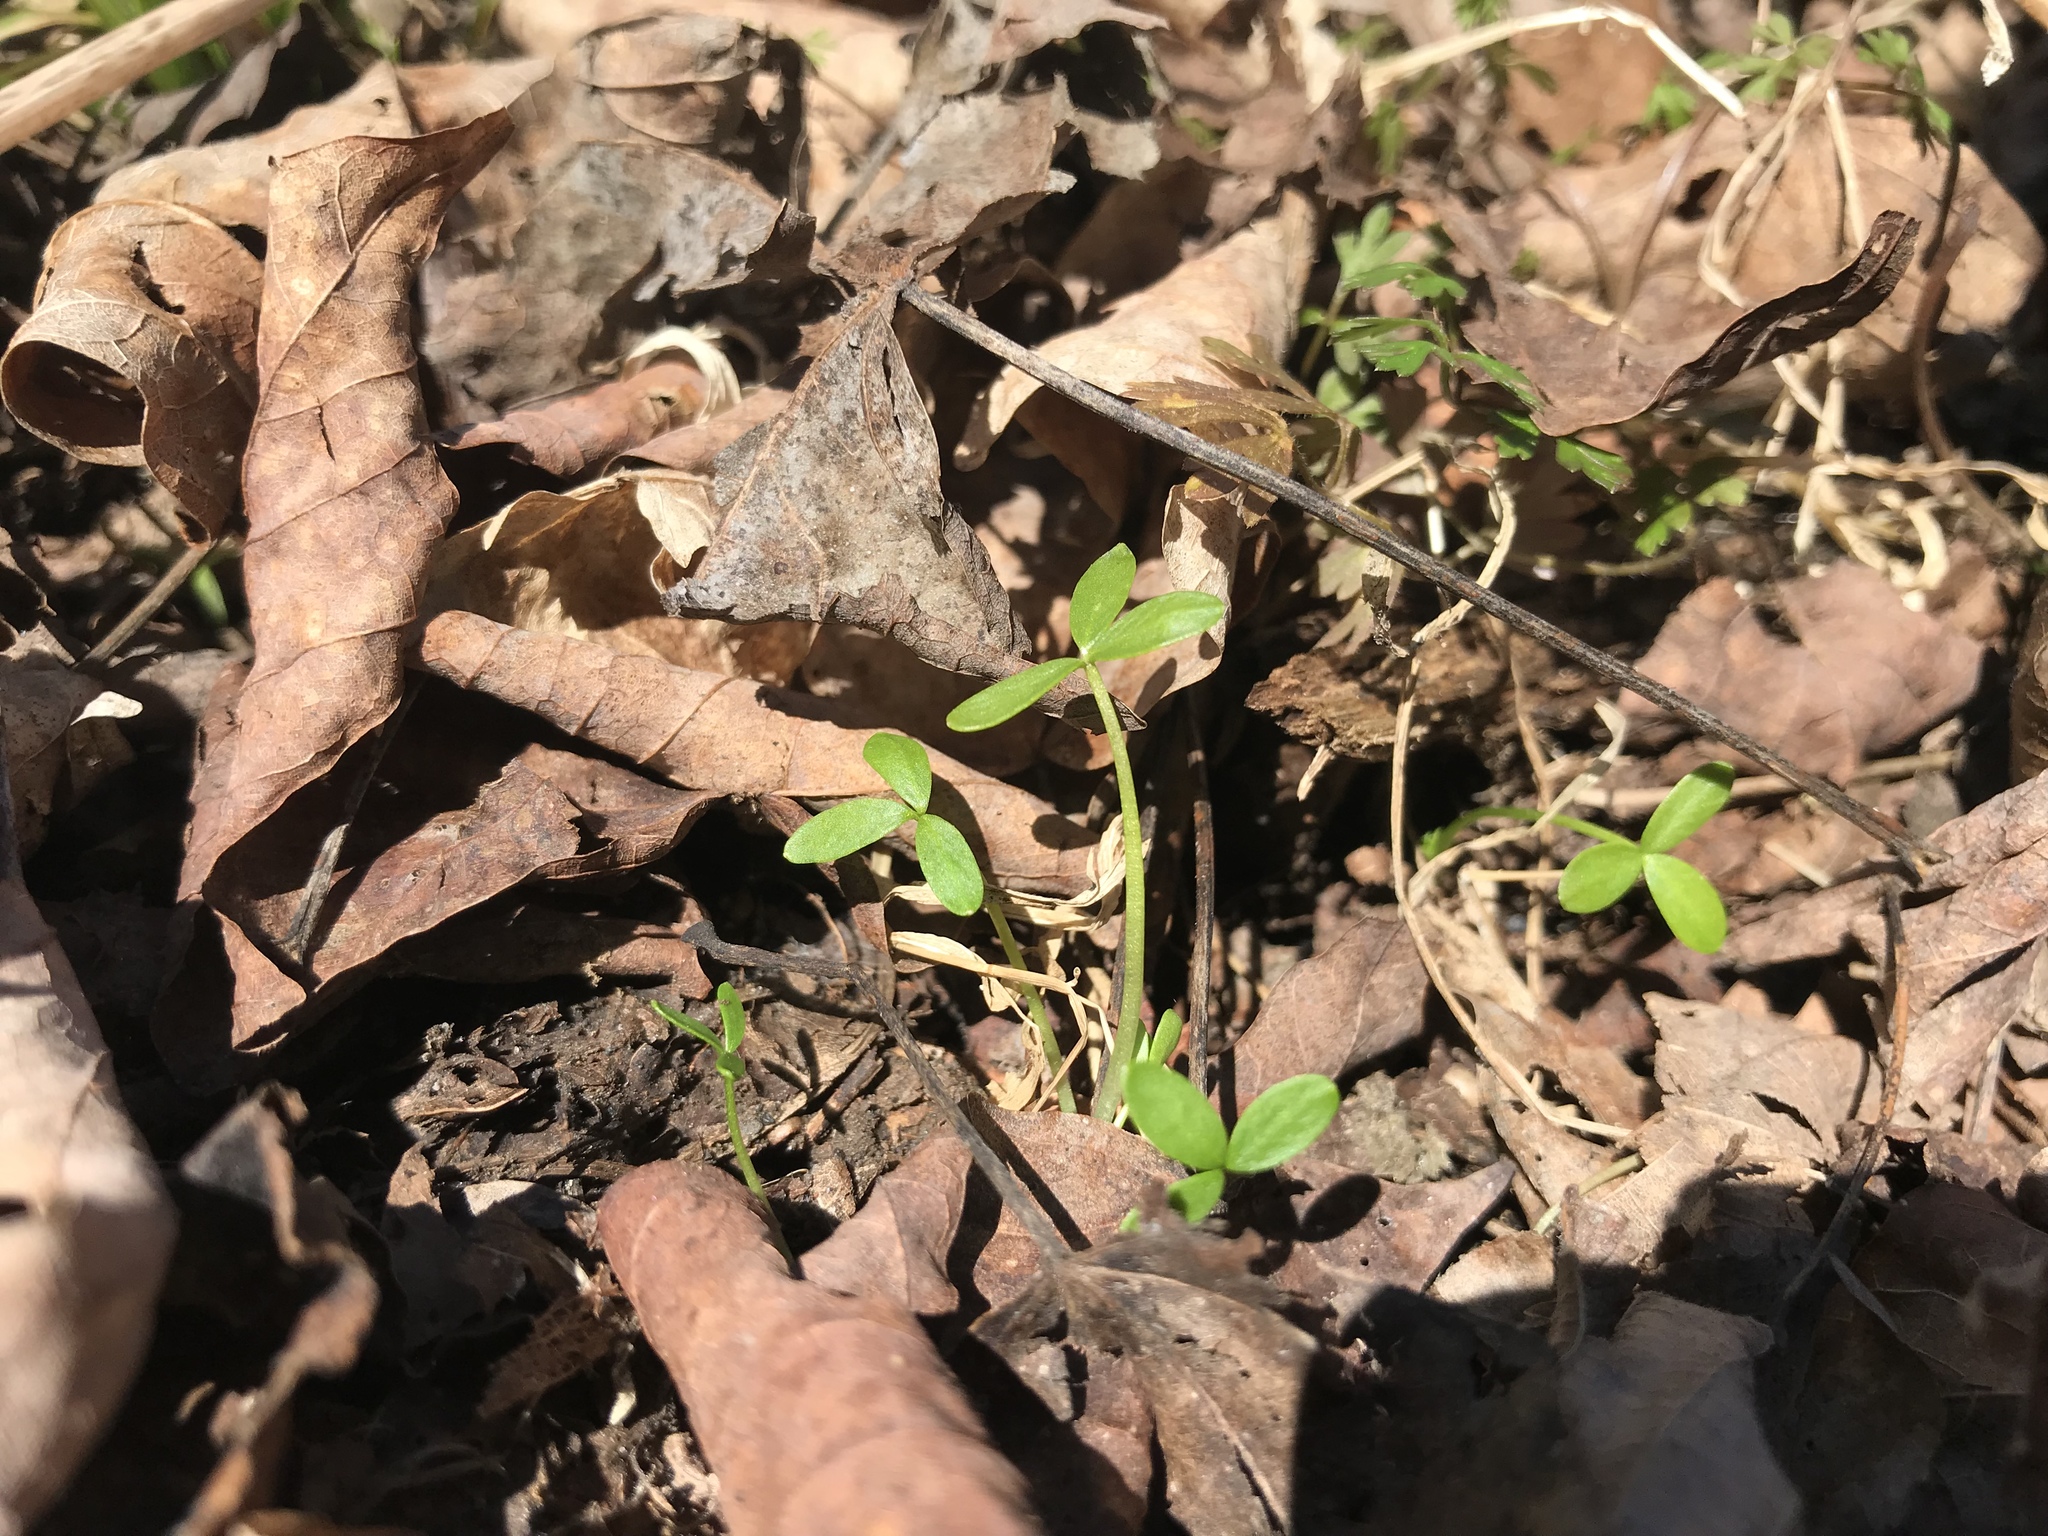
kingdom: Plantae
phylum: Tracheophyta
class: Magnoliopsida
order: Brassicales
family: Limnanthaceae
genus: Floerkea
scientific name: Floerkea proserpinacoides
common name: False mermaid
